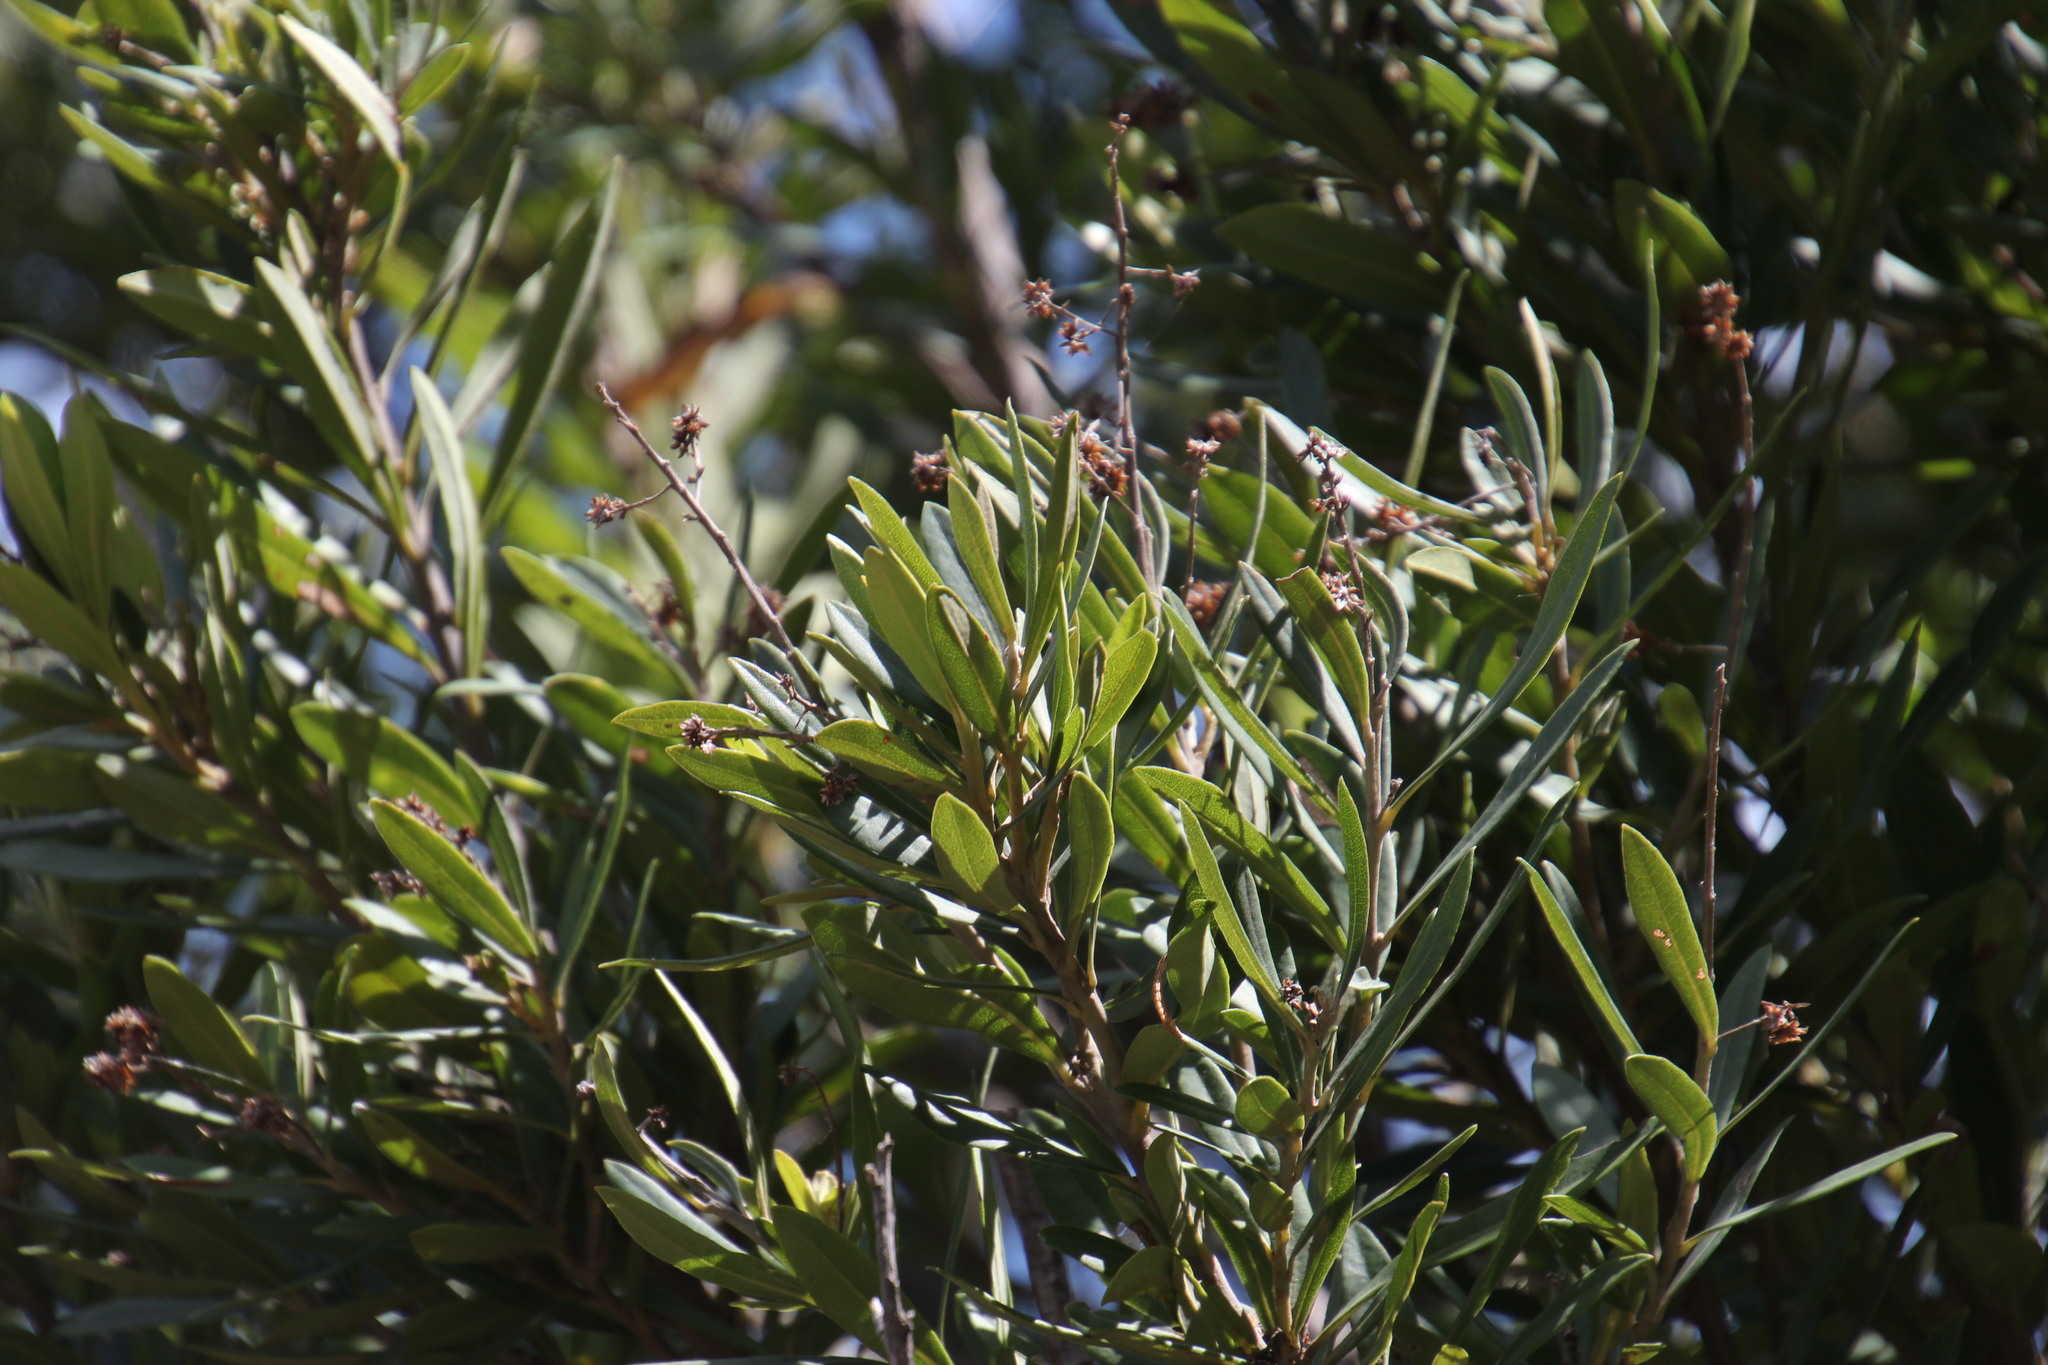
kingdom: Plantae
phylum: Tracheophyta
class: Magnoliopsida
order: Asterales
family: Asteraceae
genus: Brachylaena
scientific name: Brachylaena neriifolia
